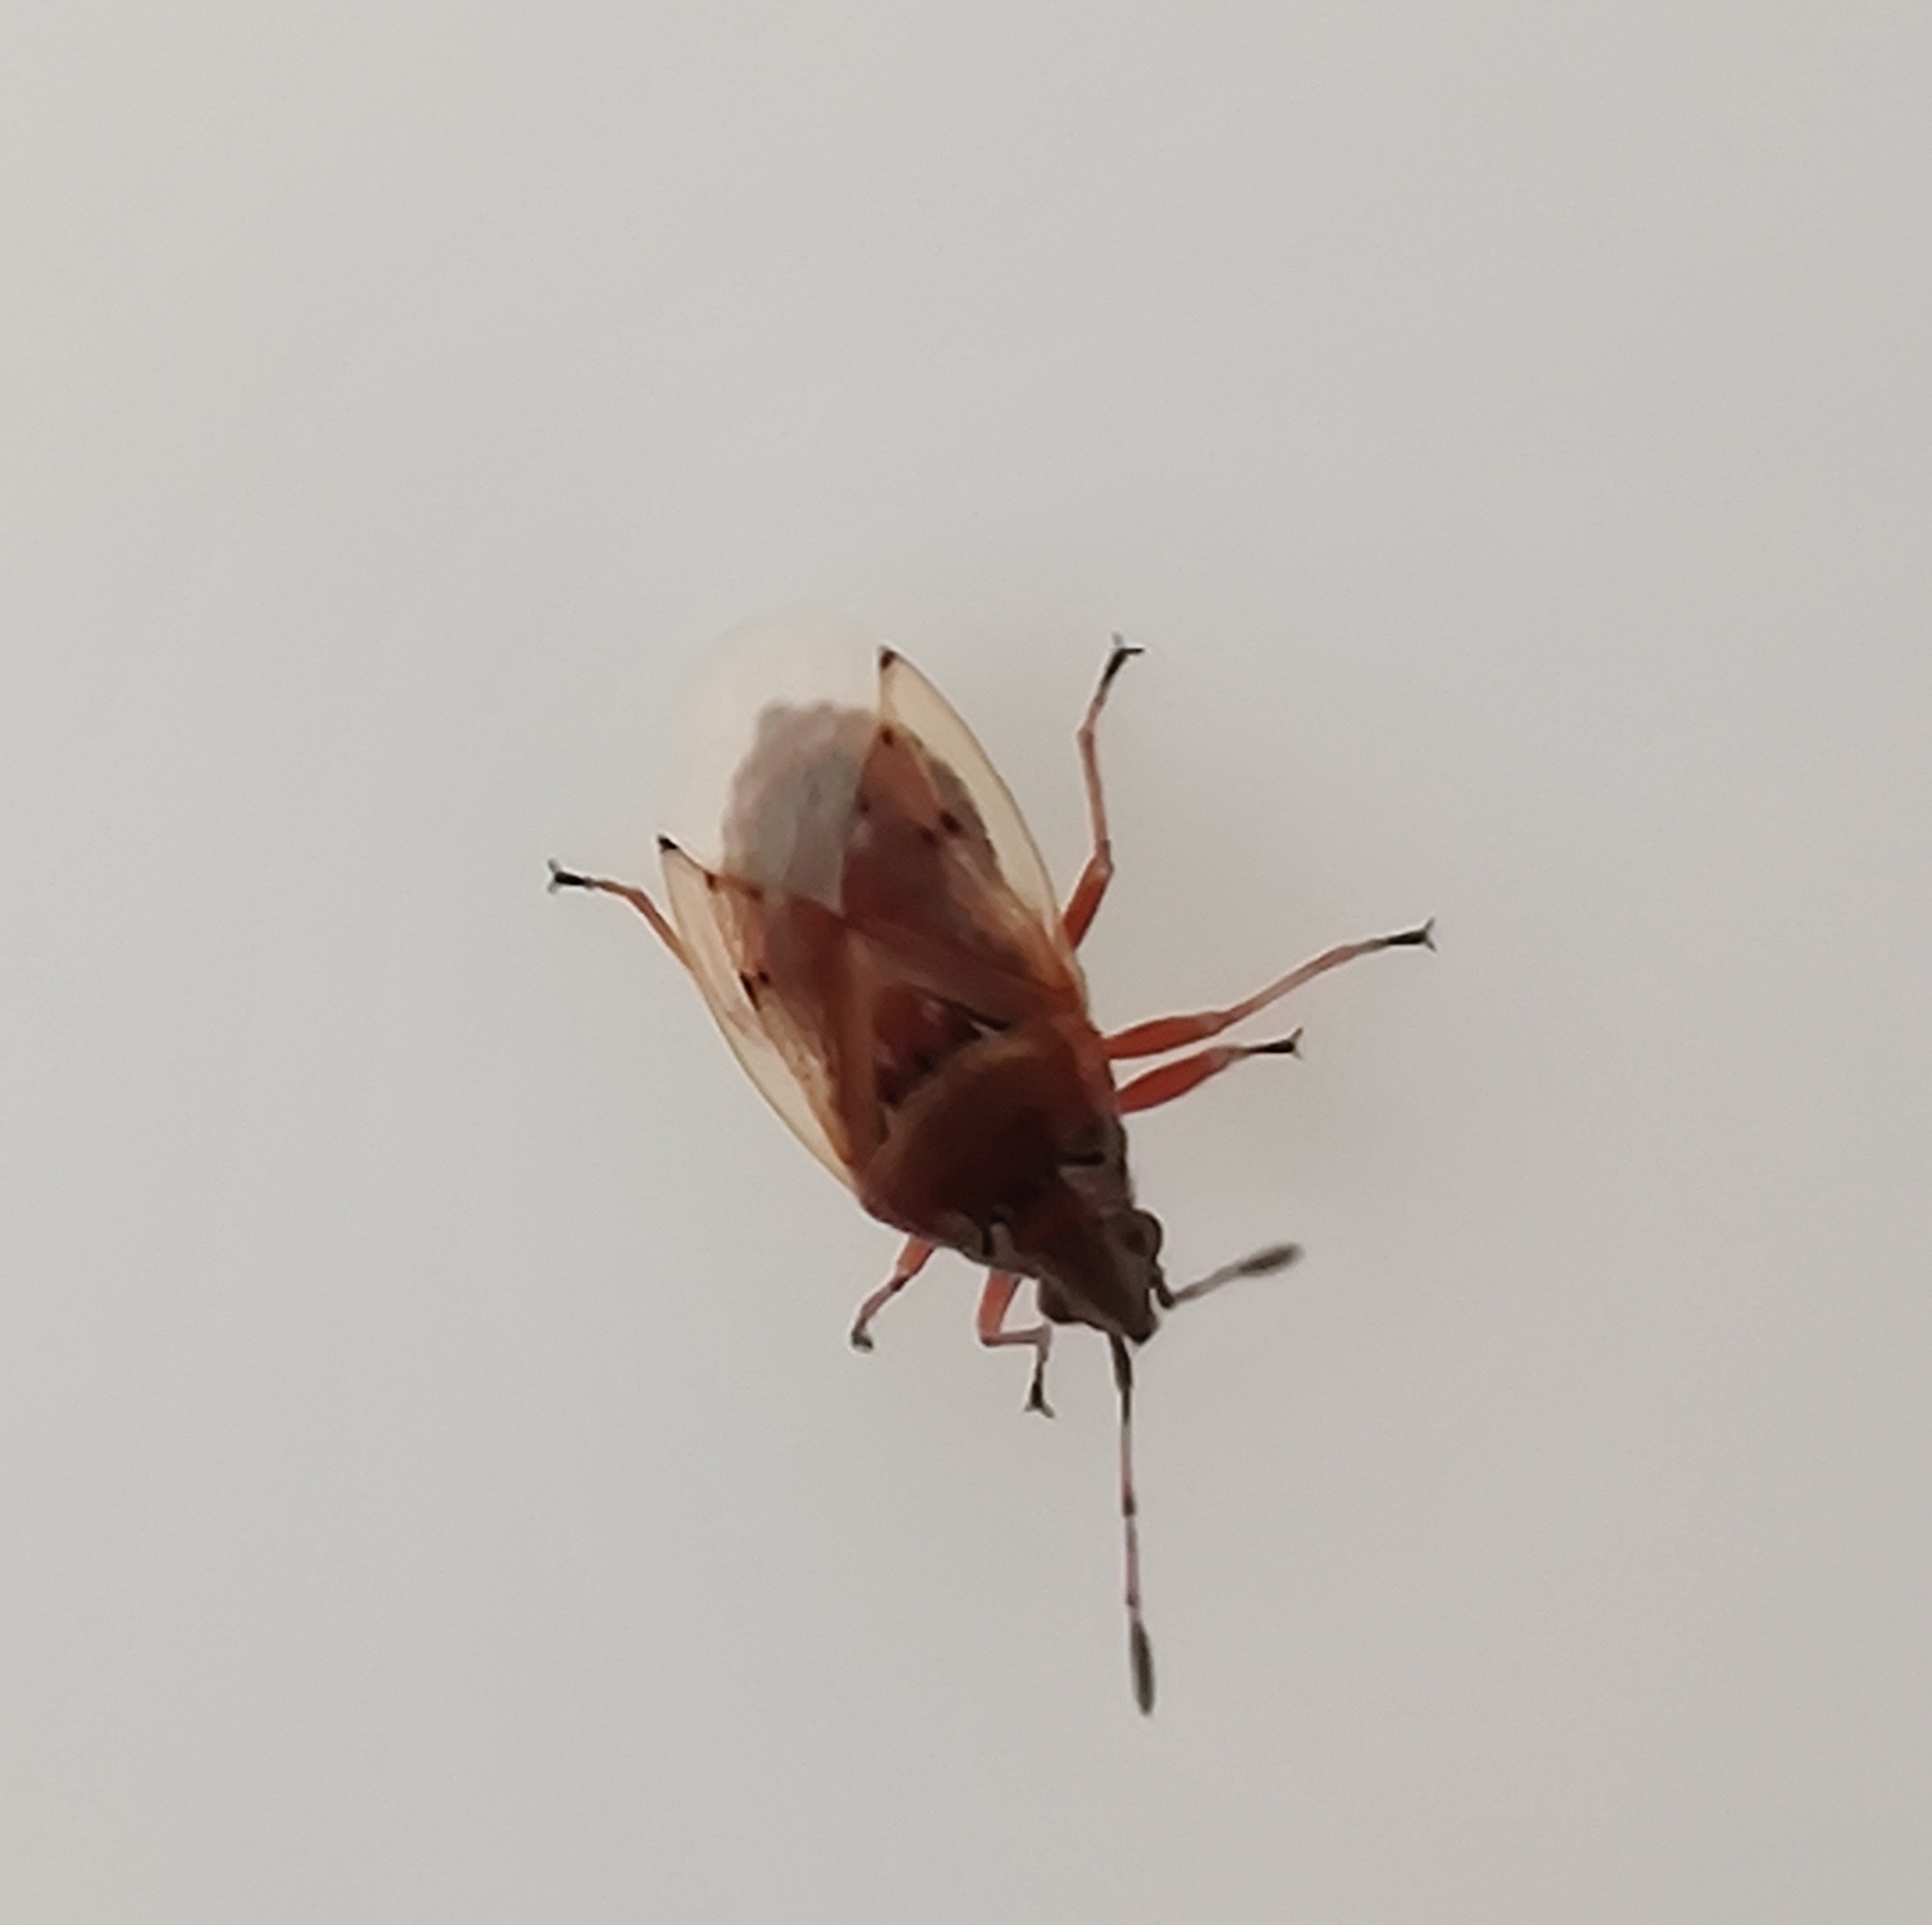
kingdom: Animalia
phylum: Arthropoda
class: Insecta
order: Hemiptera
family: Lygaeidae
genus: Kleidocerys
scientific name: Kleidocerys resedae
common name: Birch catkin bug
